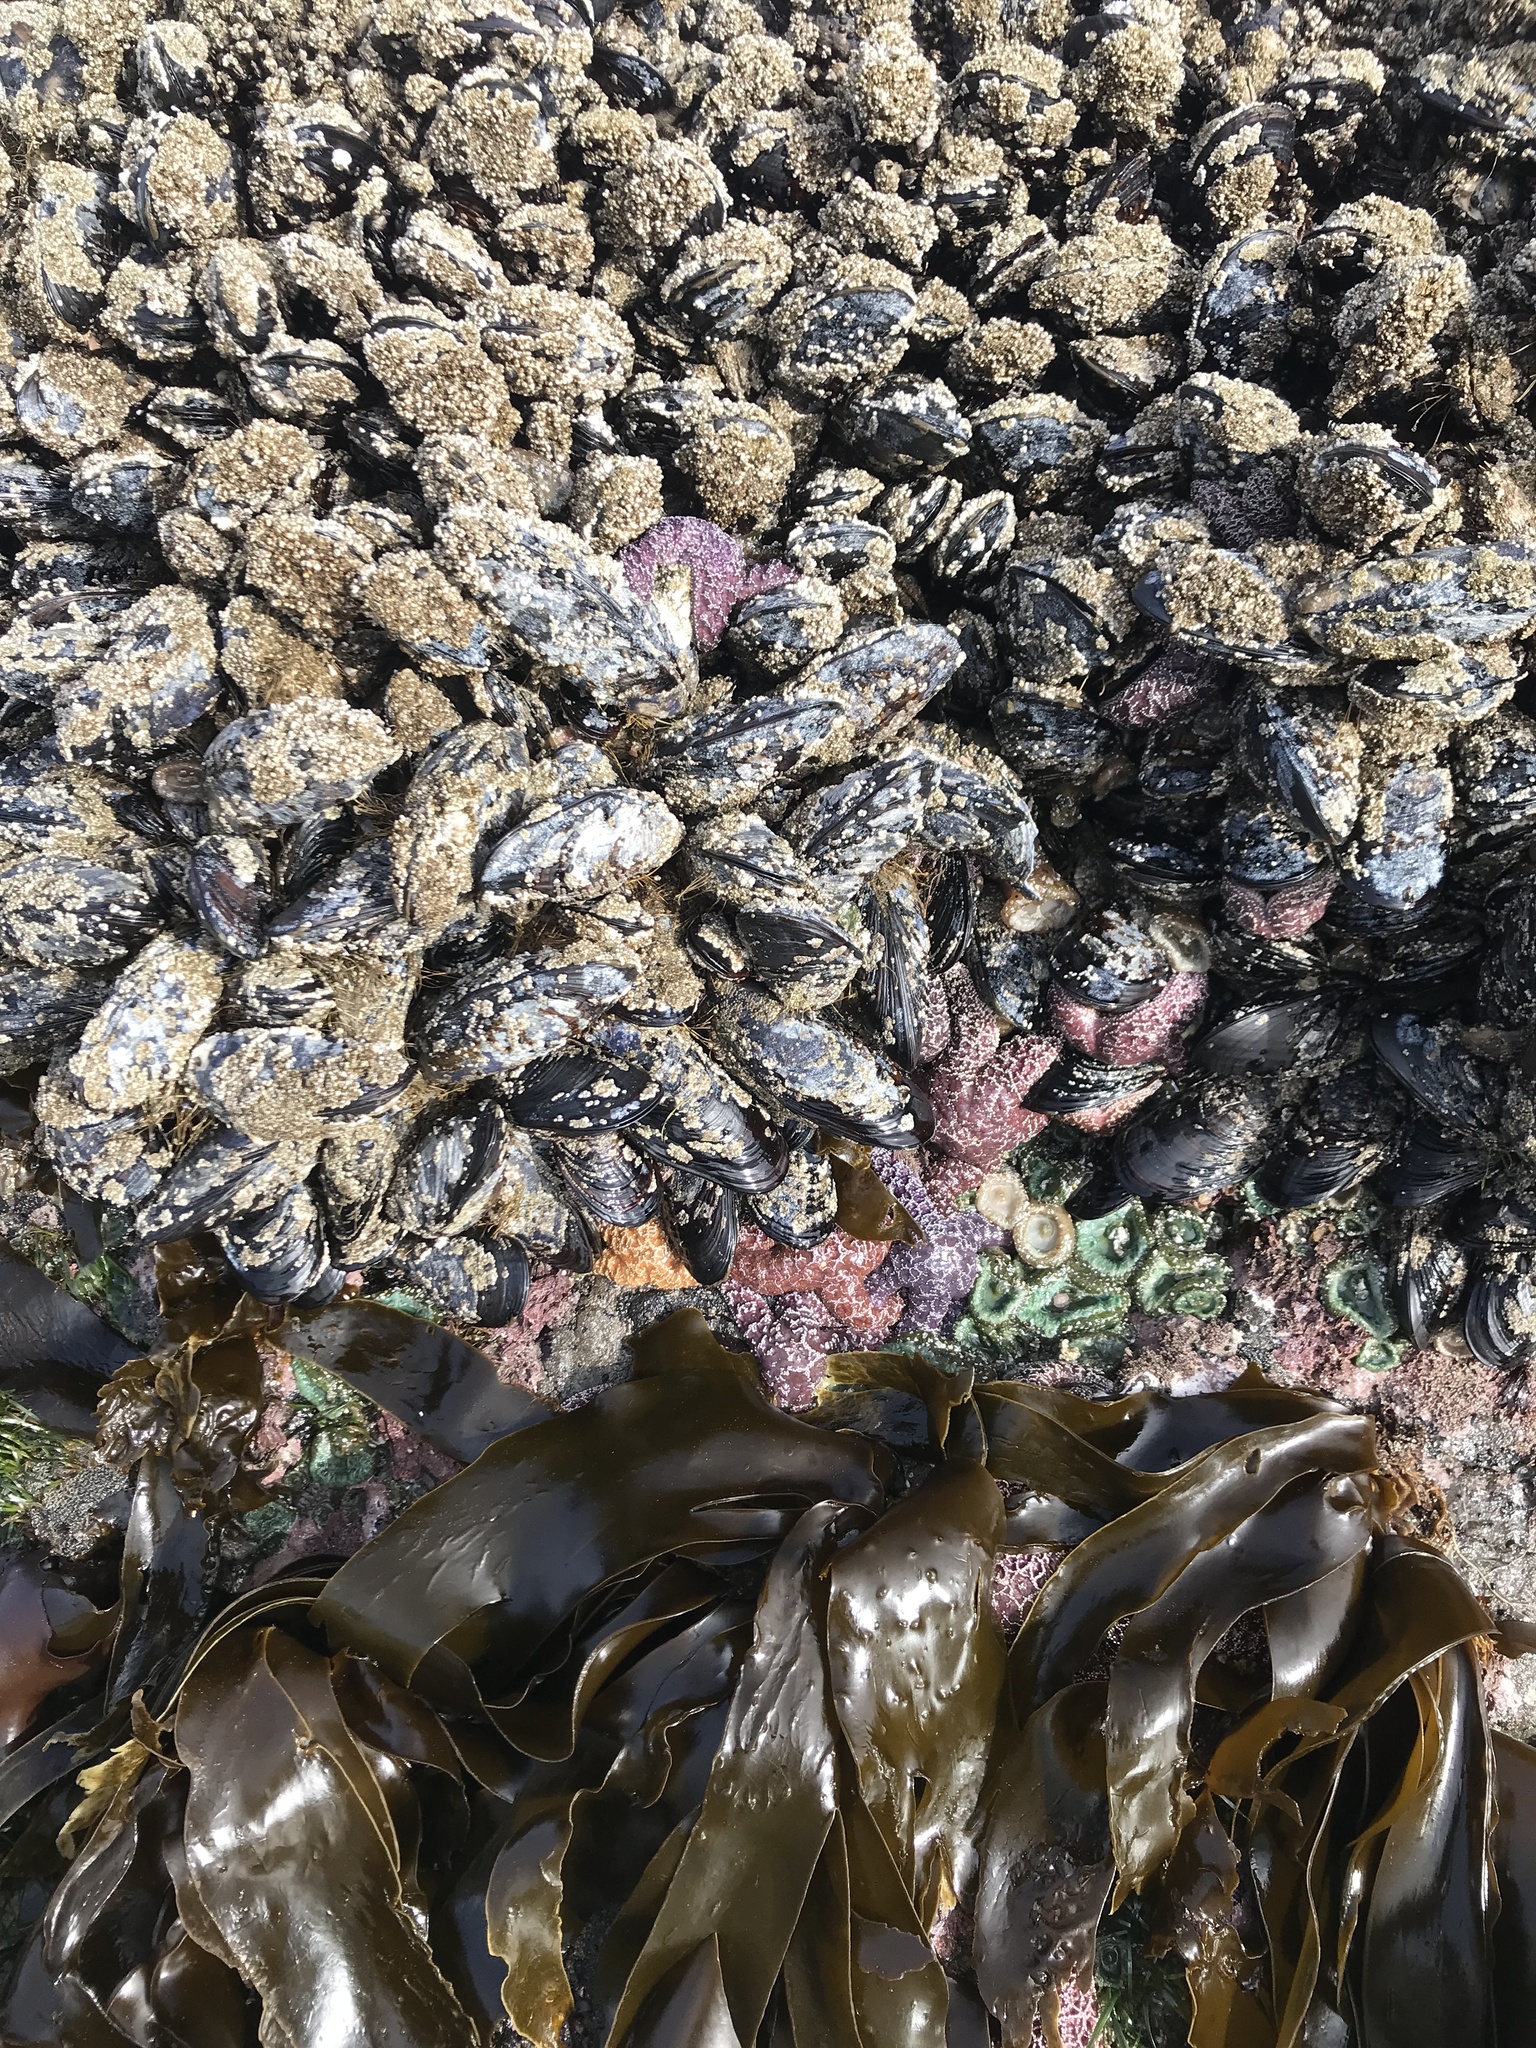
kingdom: Animalia
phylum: Mollusca
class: Bivalvia
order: Mytilida
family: Mytilidae
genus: Mytilus
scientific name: Mytilus californianus
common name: California mussel
